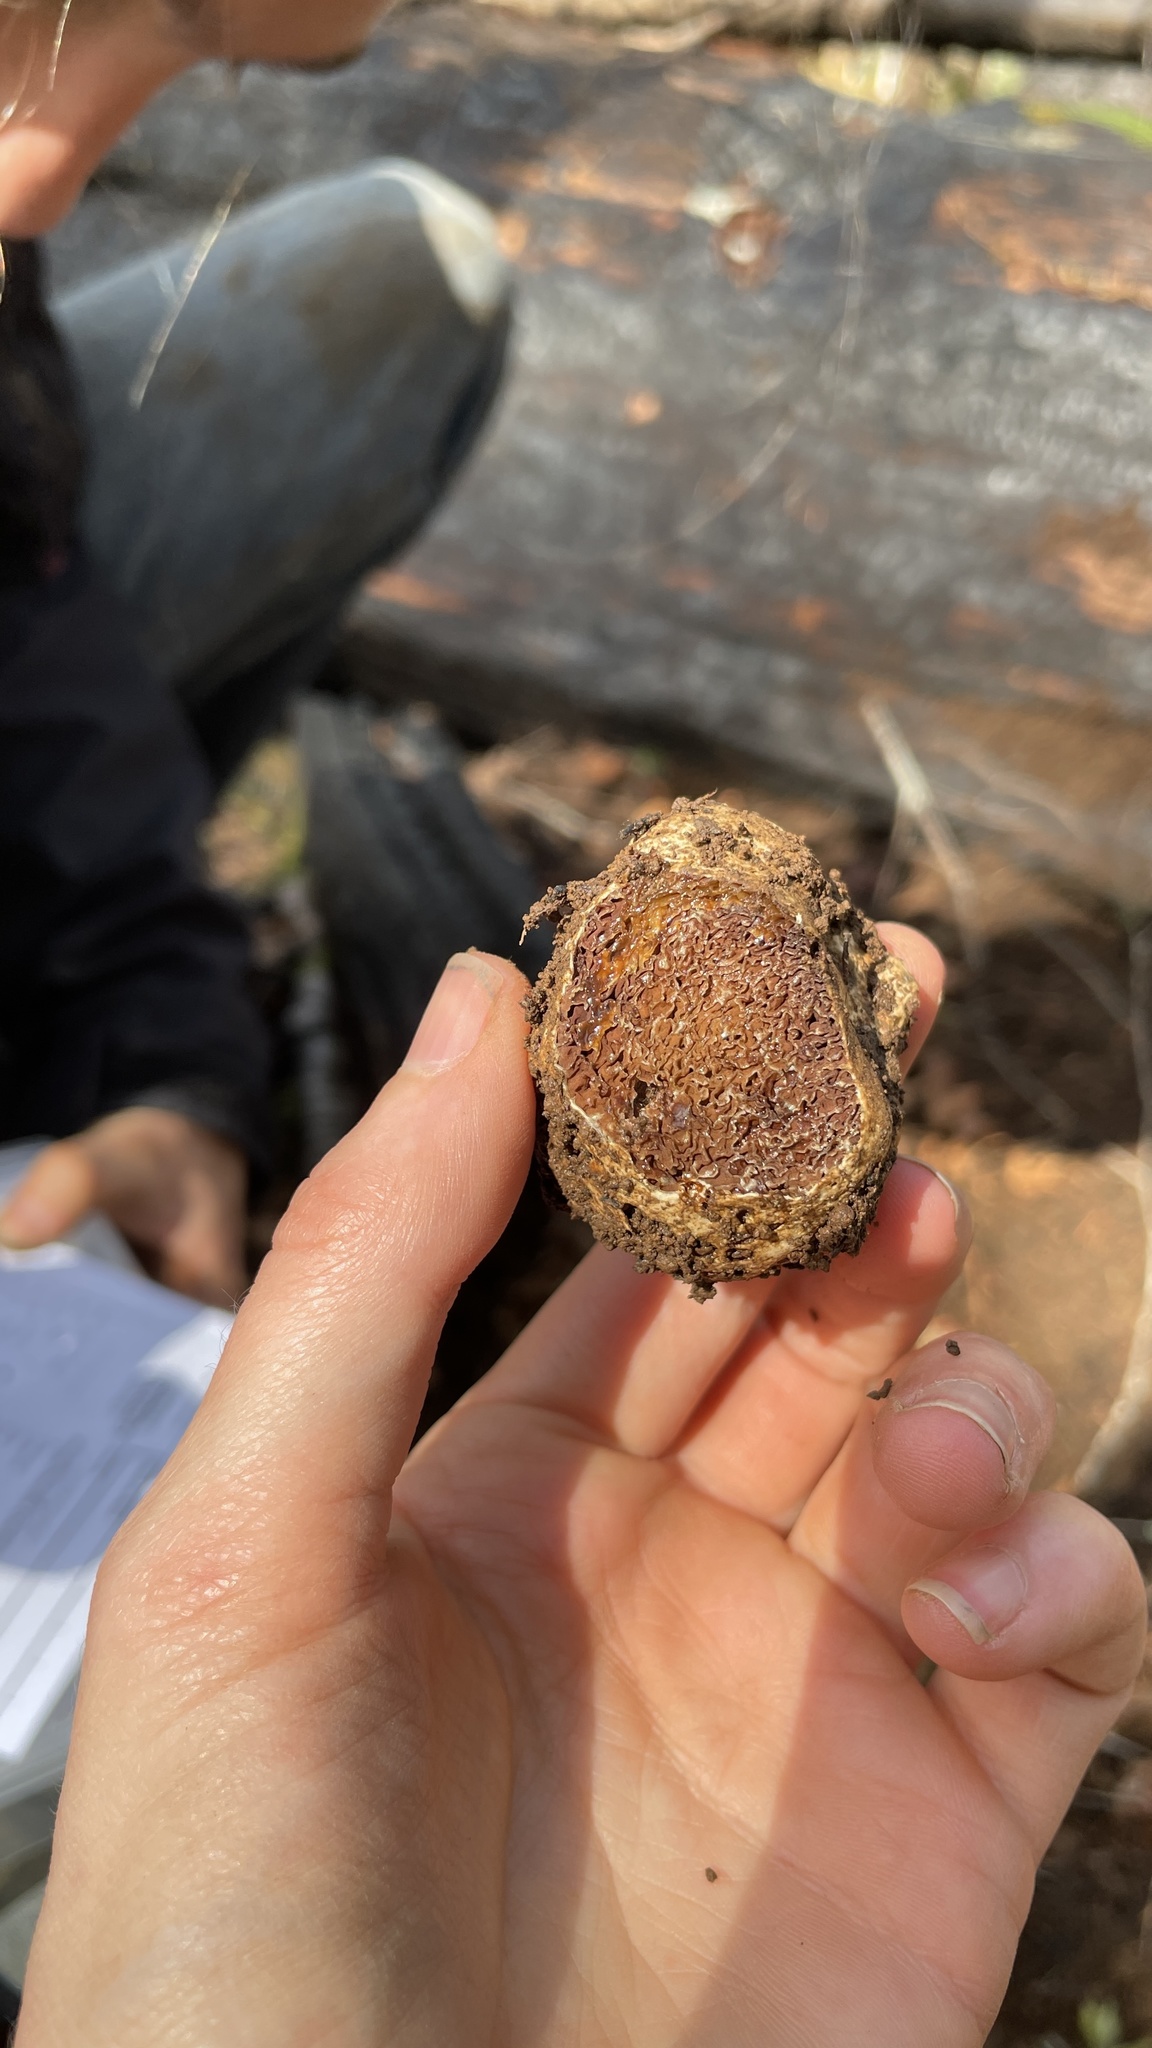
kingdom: Fungi
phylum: Basidiomycota
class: Agaricomycetes
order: Agaricales
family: Hymenogastraceae
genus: Hymenogaster
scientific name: Hymenogaster subalpinus
